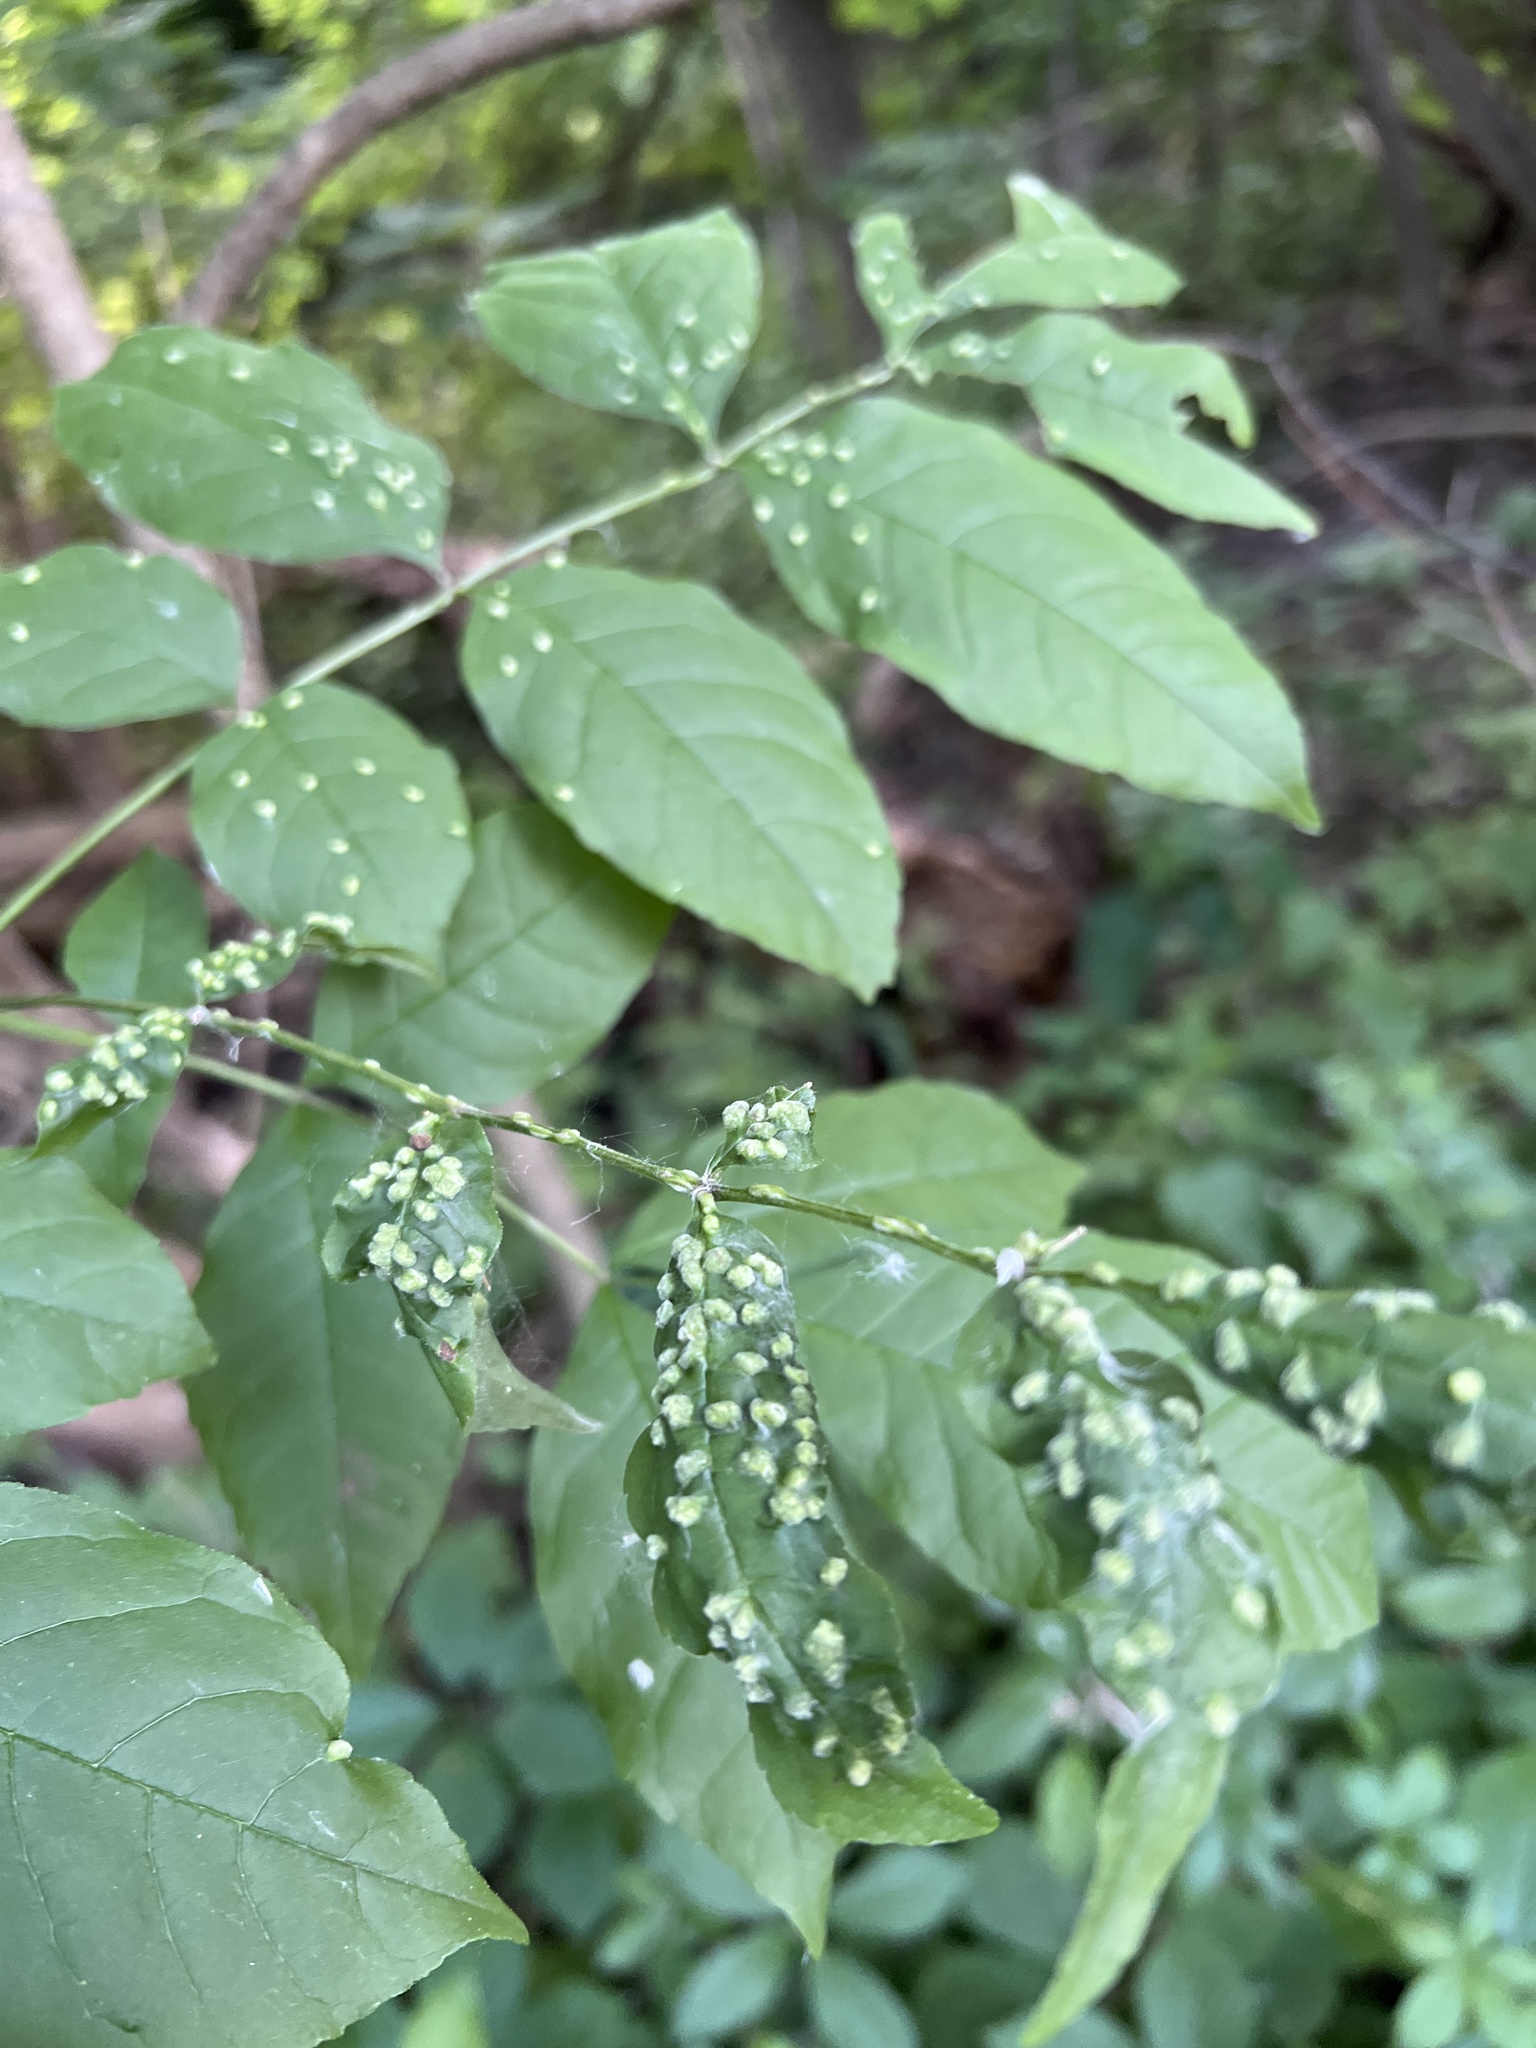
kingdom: Animalia
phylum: Arthropoda
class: Arachnida
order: Trombidiformes
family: Eriophyidae
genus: Aceria
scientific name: Aceria fraxinicola
